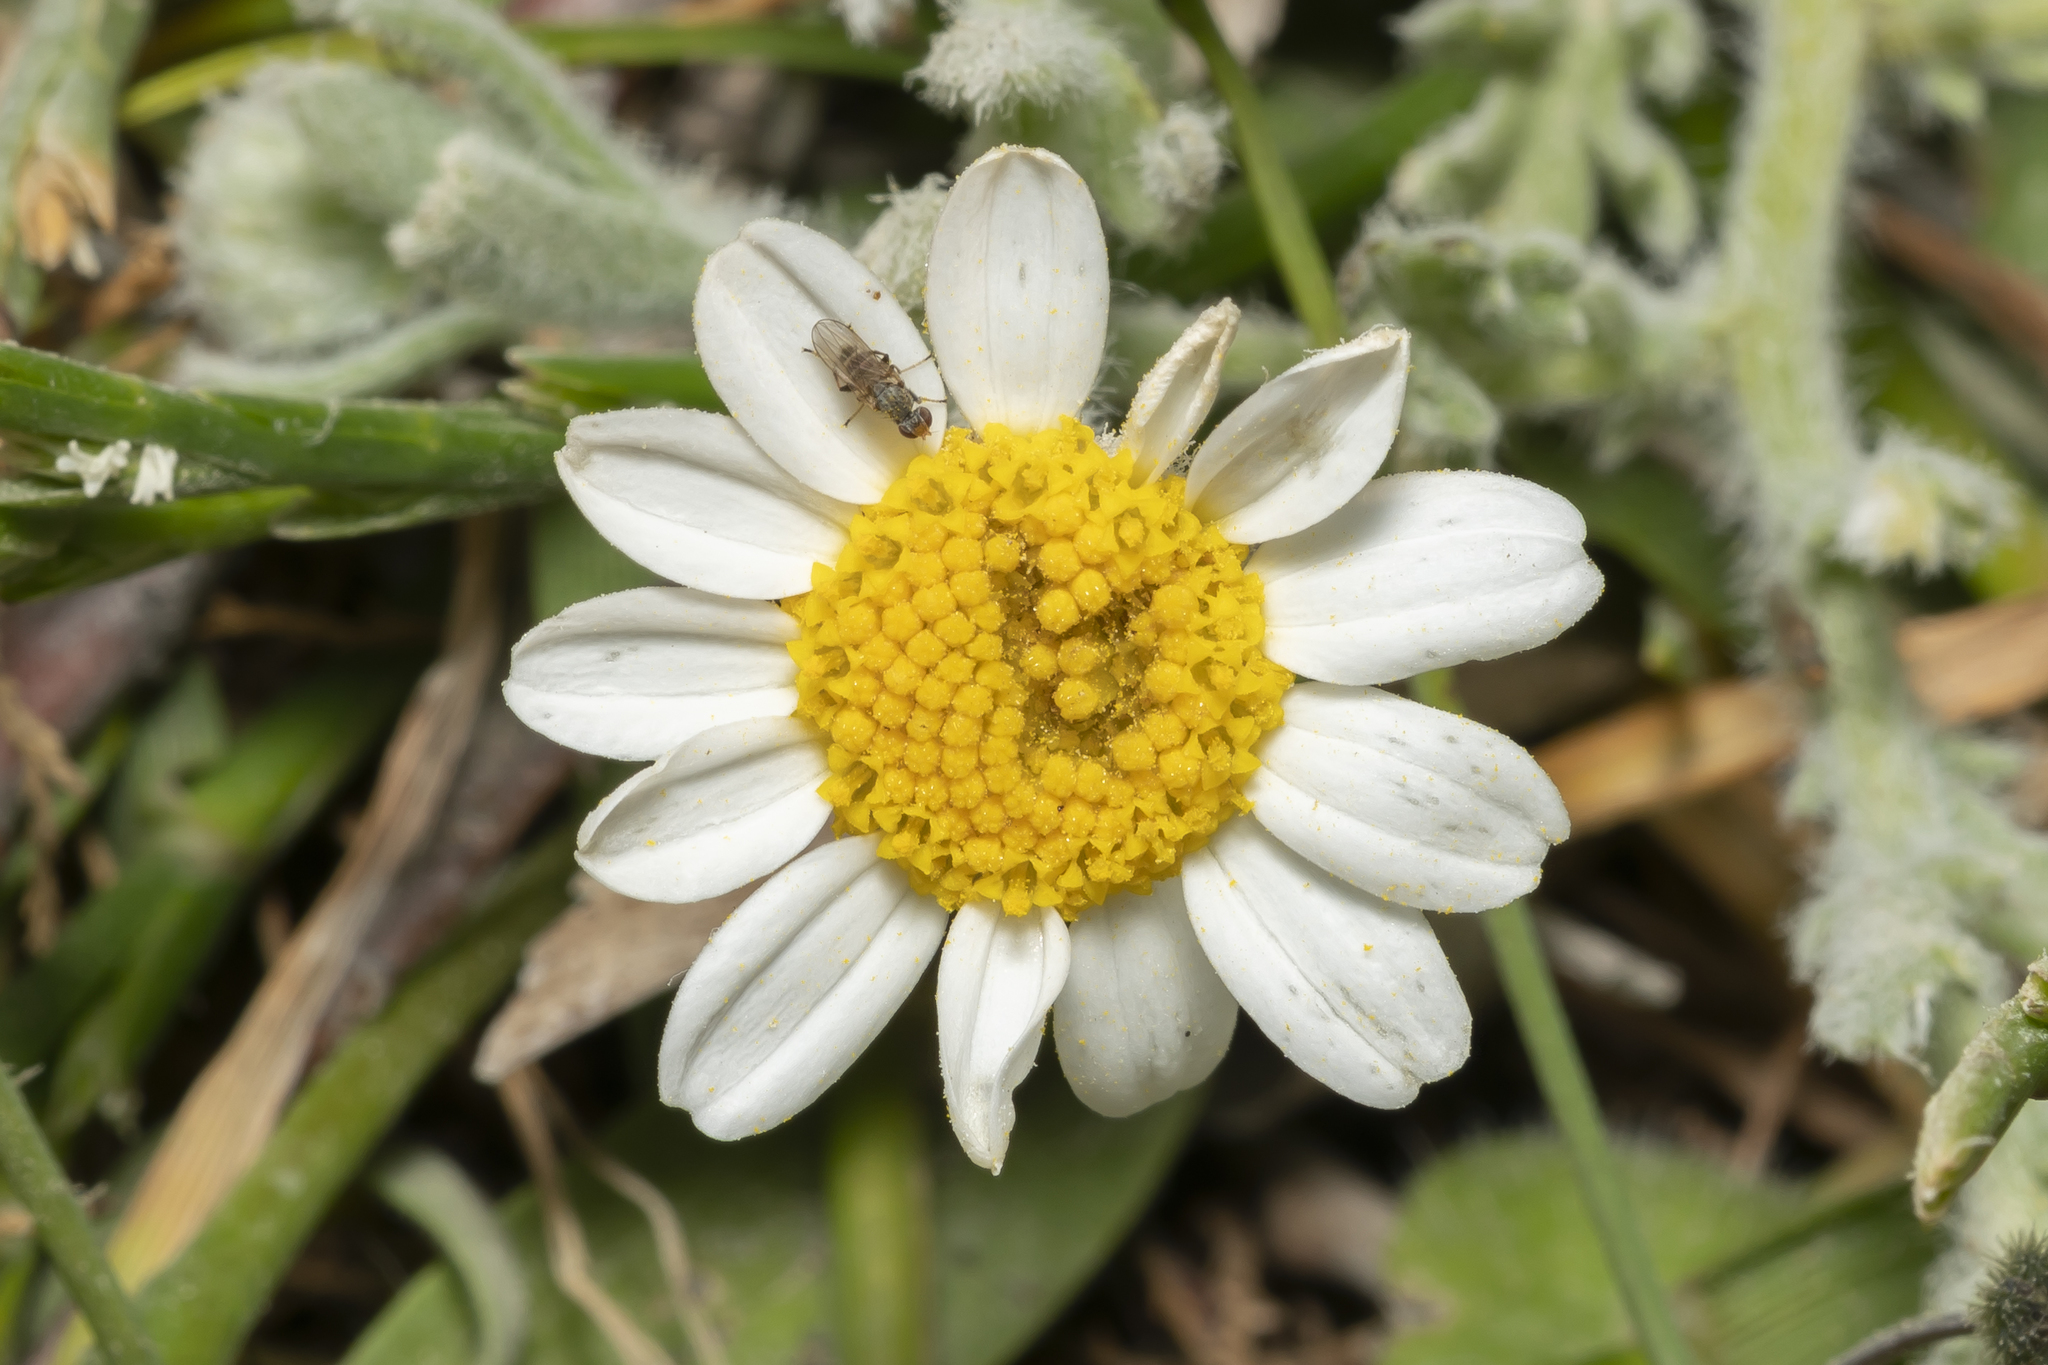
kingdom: Plantae
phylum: Tracheophyta
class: Magnoliopsida
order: Asterales
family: Asteraceae
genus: Anthemis
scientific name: Anthemis tomentosa
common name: Woolly chamomile
